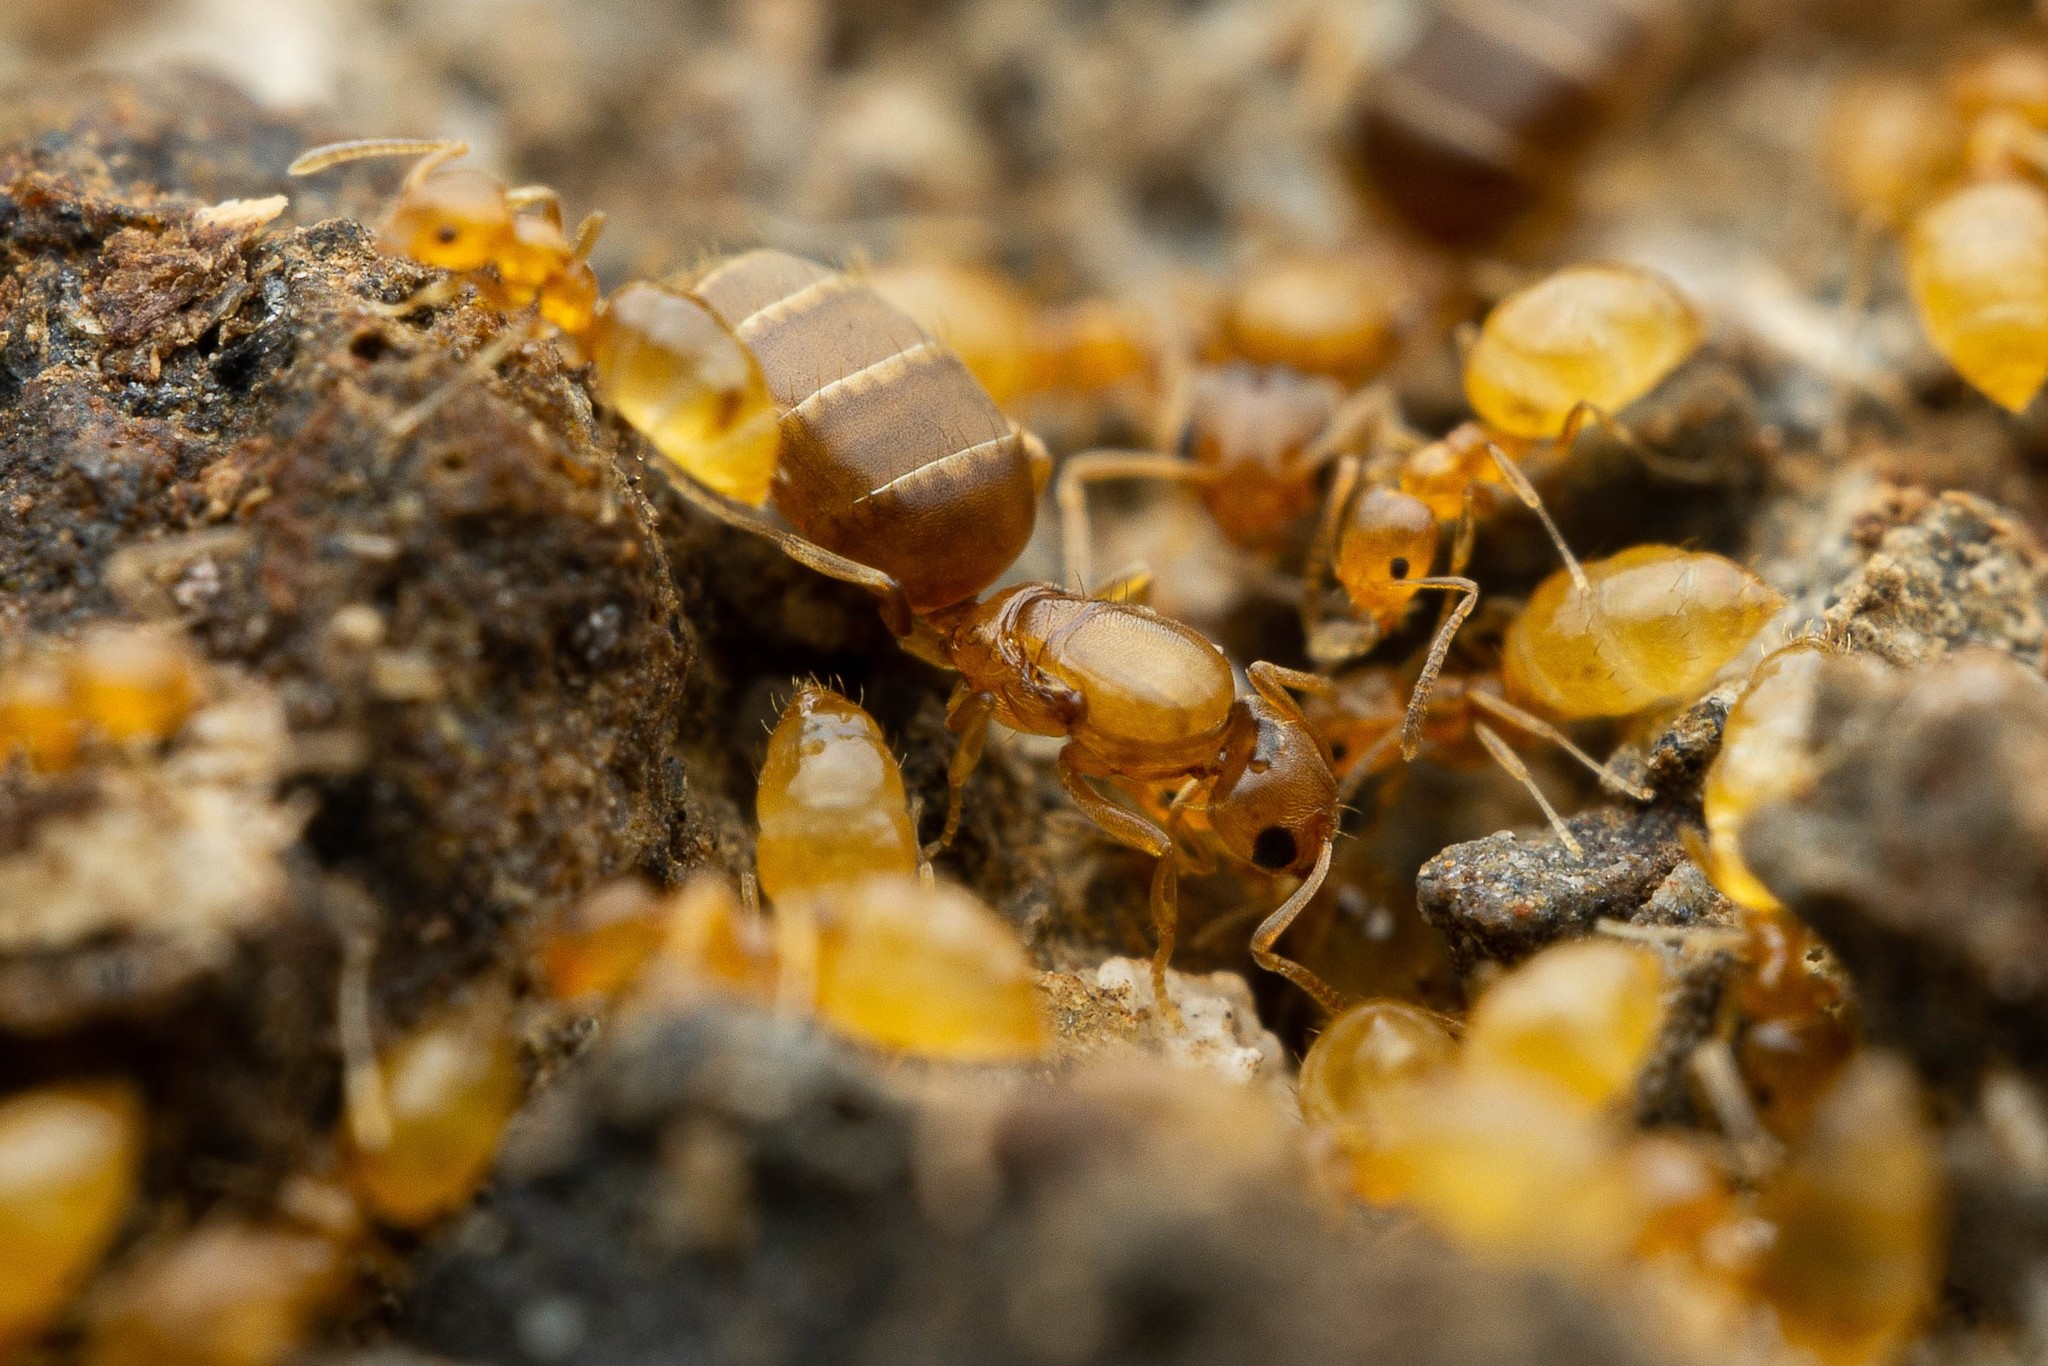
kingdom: Animalia
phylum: Arthropoda
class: Insecta
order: Hymenoptera
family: Formicidae
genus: Plagiolepis
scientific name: Plagiolepis alluaudi
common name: Little yellow ant
